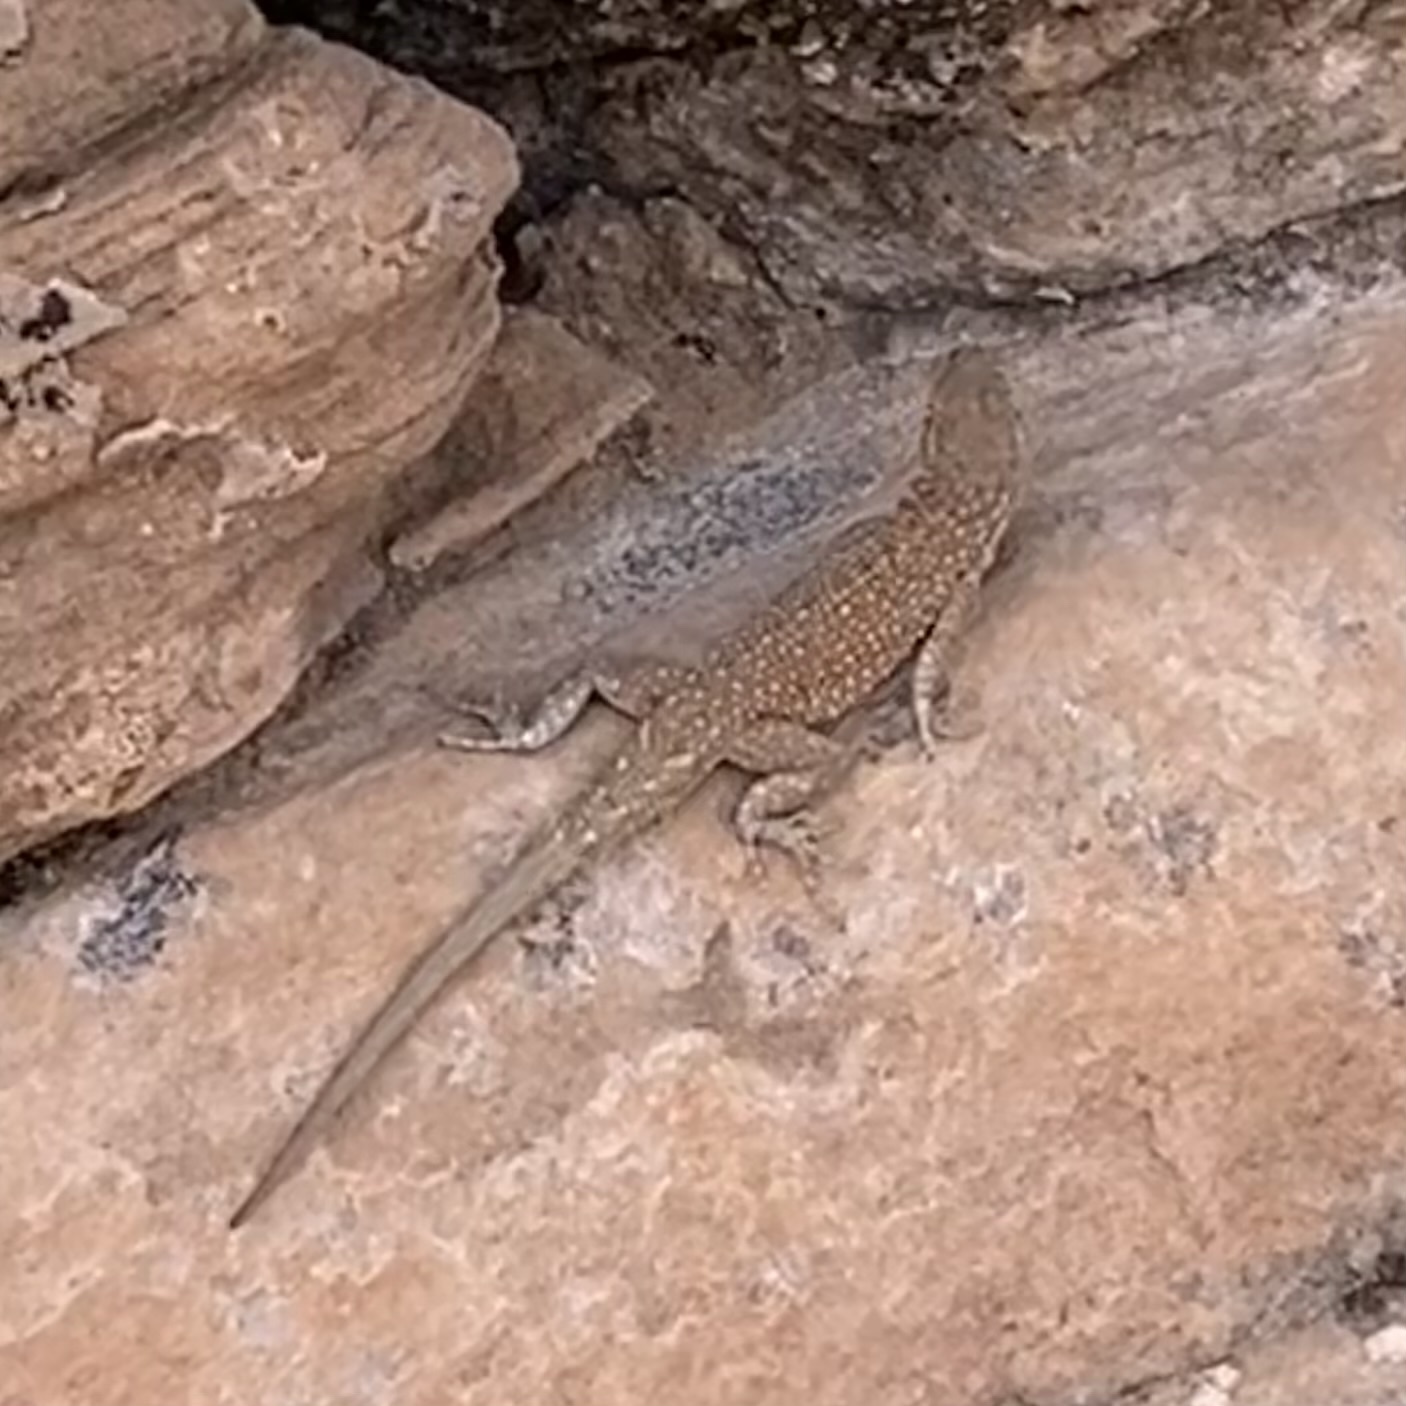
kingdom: Animalia
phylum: Chordata
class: Squamata
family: Phrynosomatidae
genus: Uta
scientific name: Uta stansburiana
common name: Side-blotched lizard
